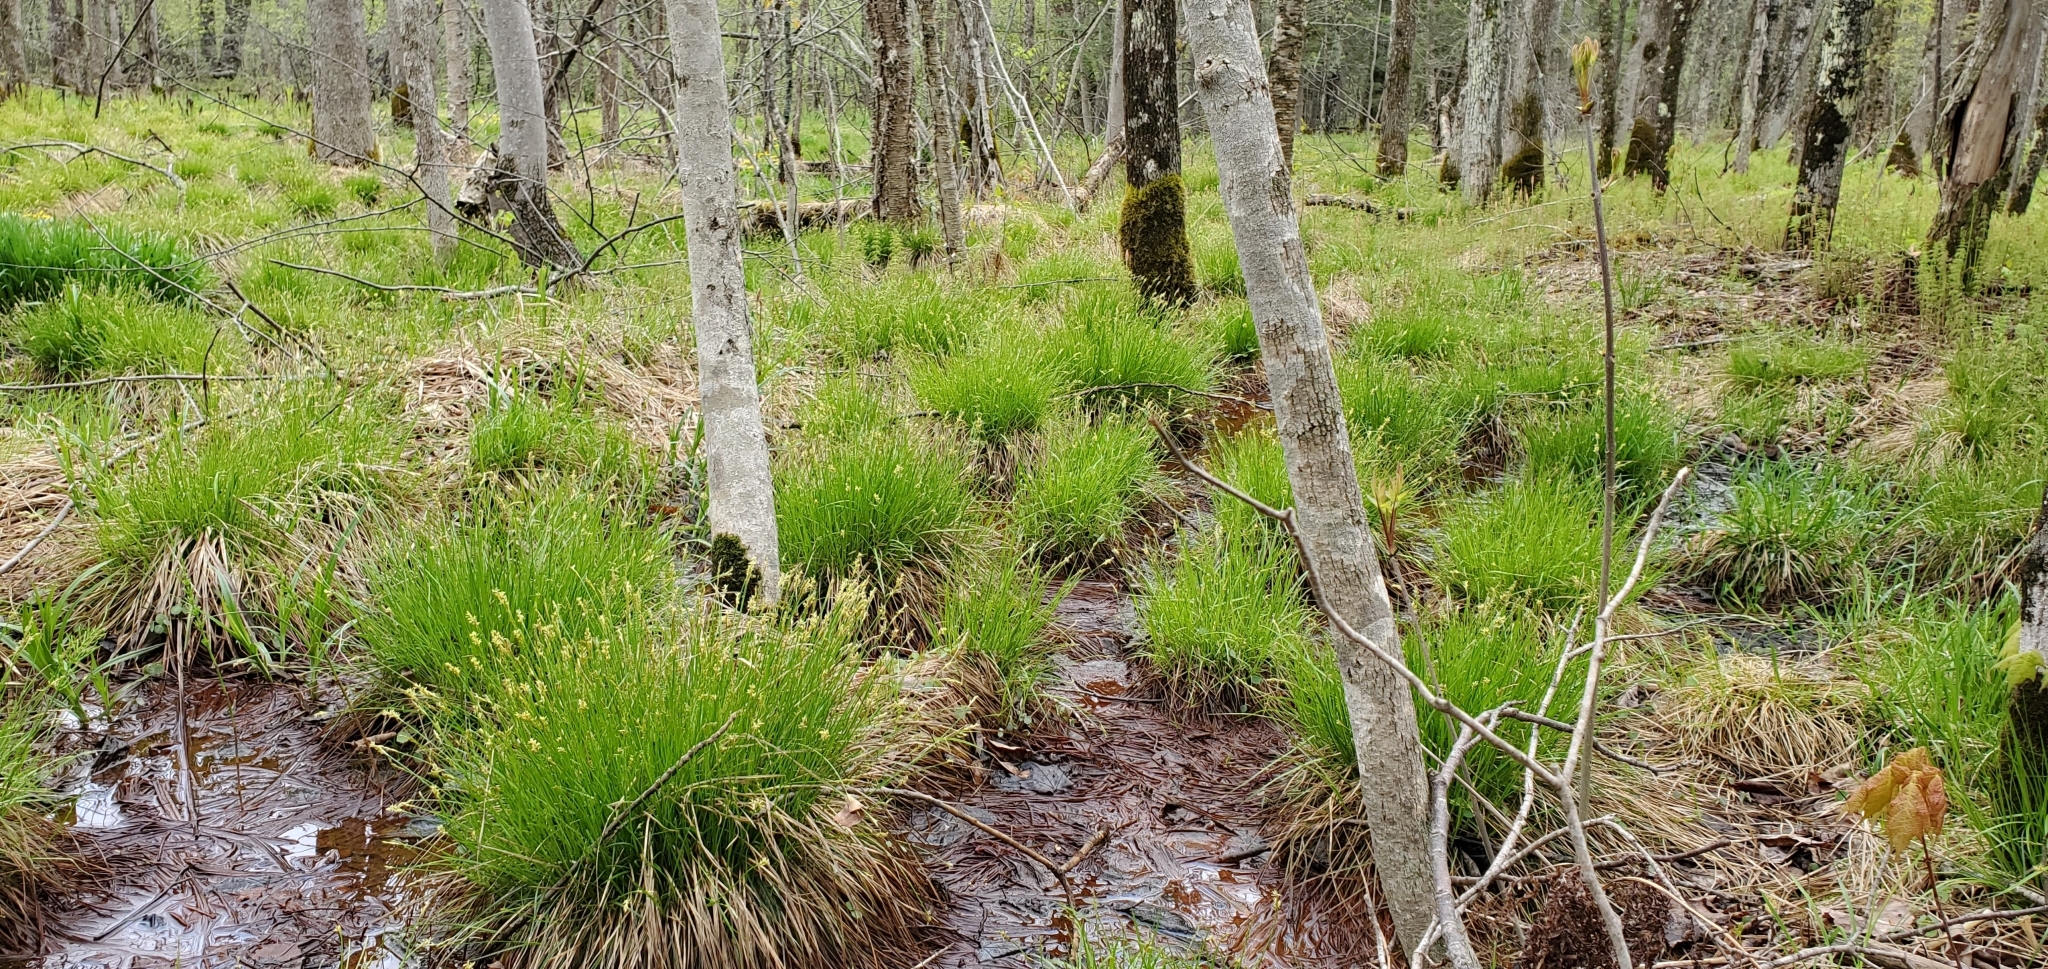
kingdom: Plantae
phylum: Tracheophyta
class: Liliopsida
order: Poales
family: Cyperaceae
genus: Carex
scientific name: Carex bromoides
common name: Brome hummock sedge
